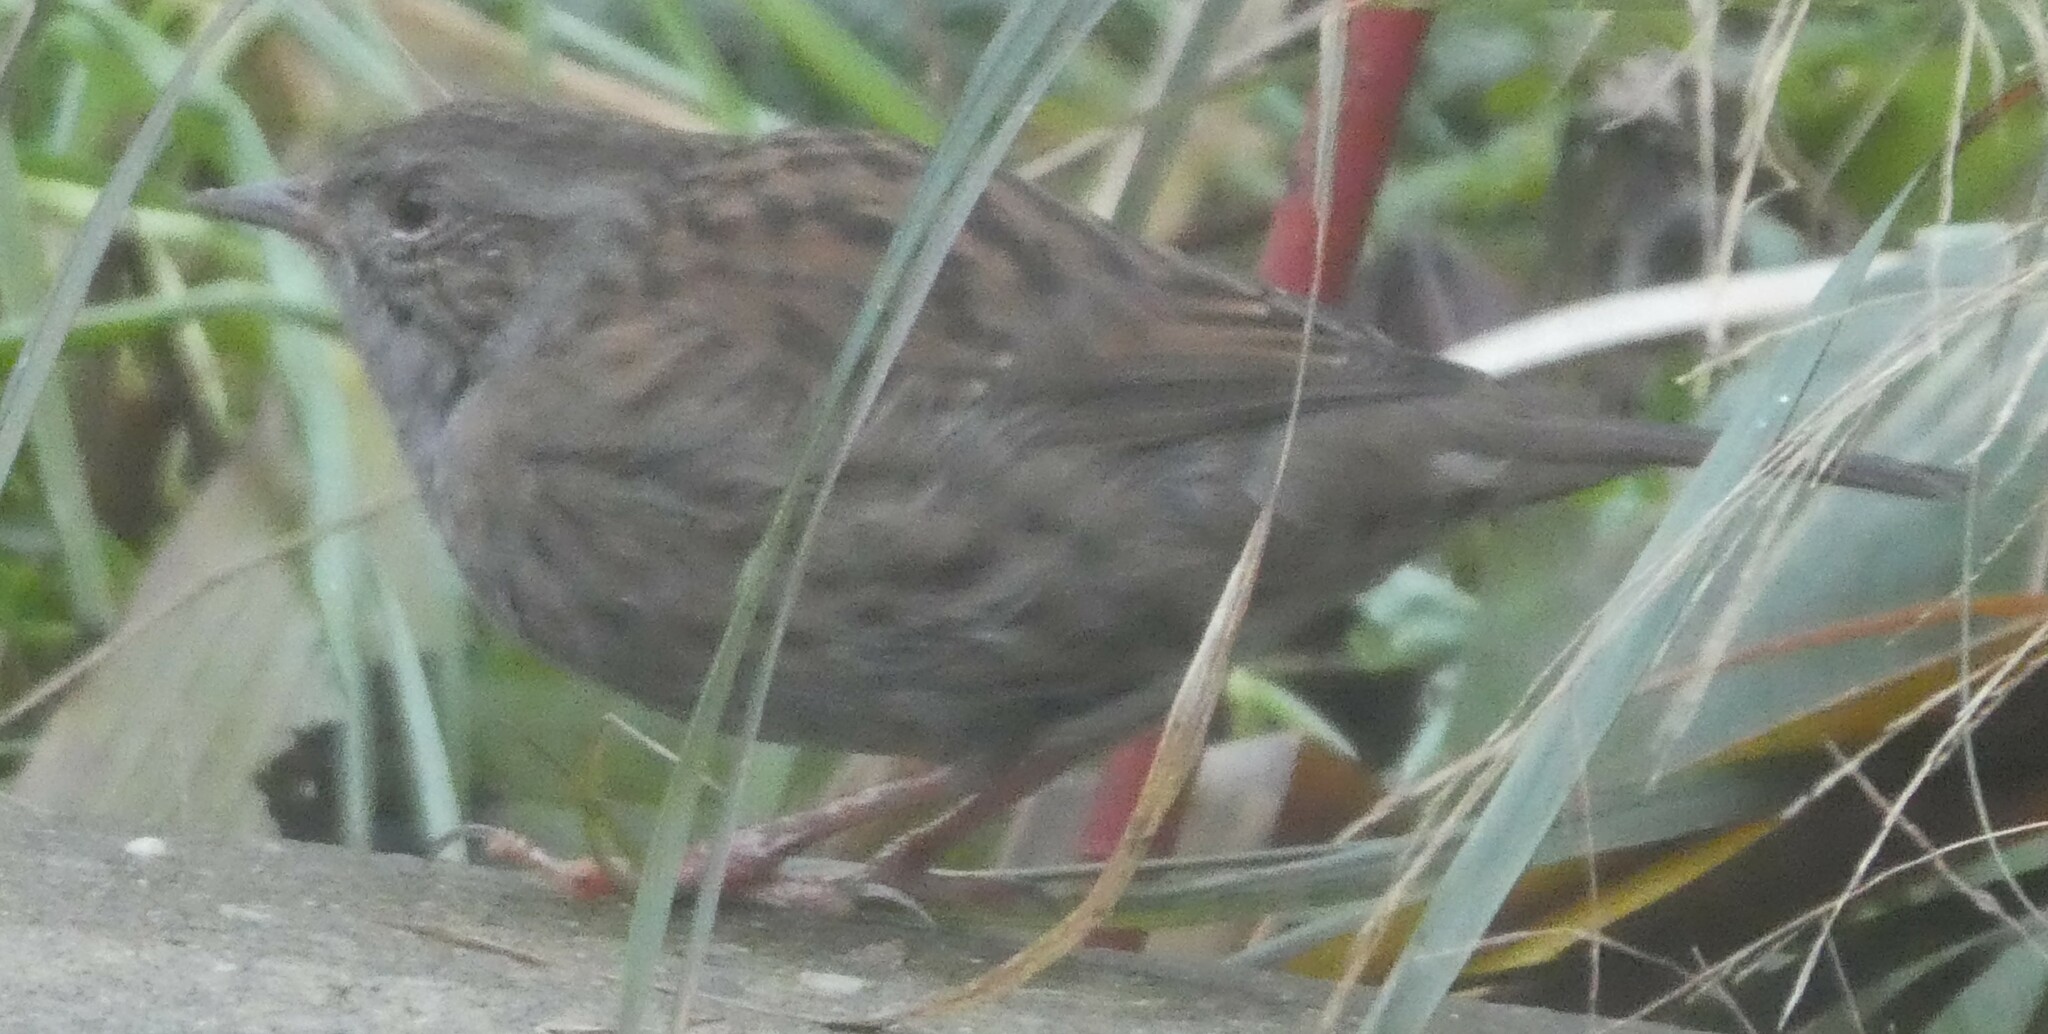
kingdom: Animalia
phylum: Chordata
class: Aves
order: Passeriformes
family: Prunellidae
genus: Prunella
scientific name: Prunella modularis
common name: Dunnock
